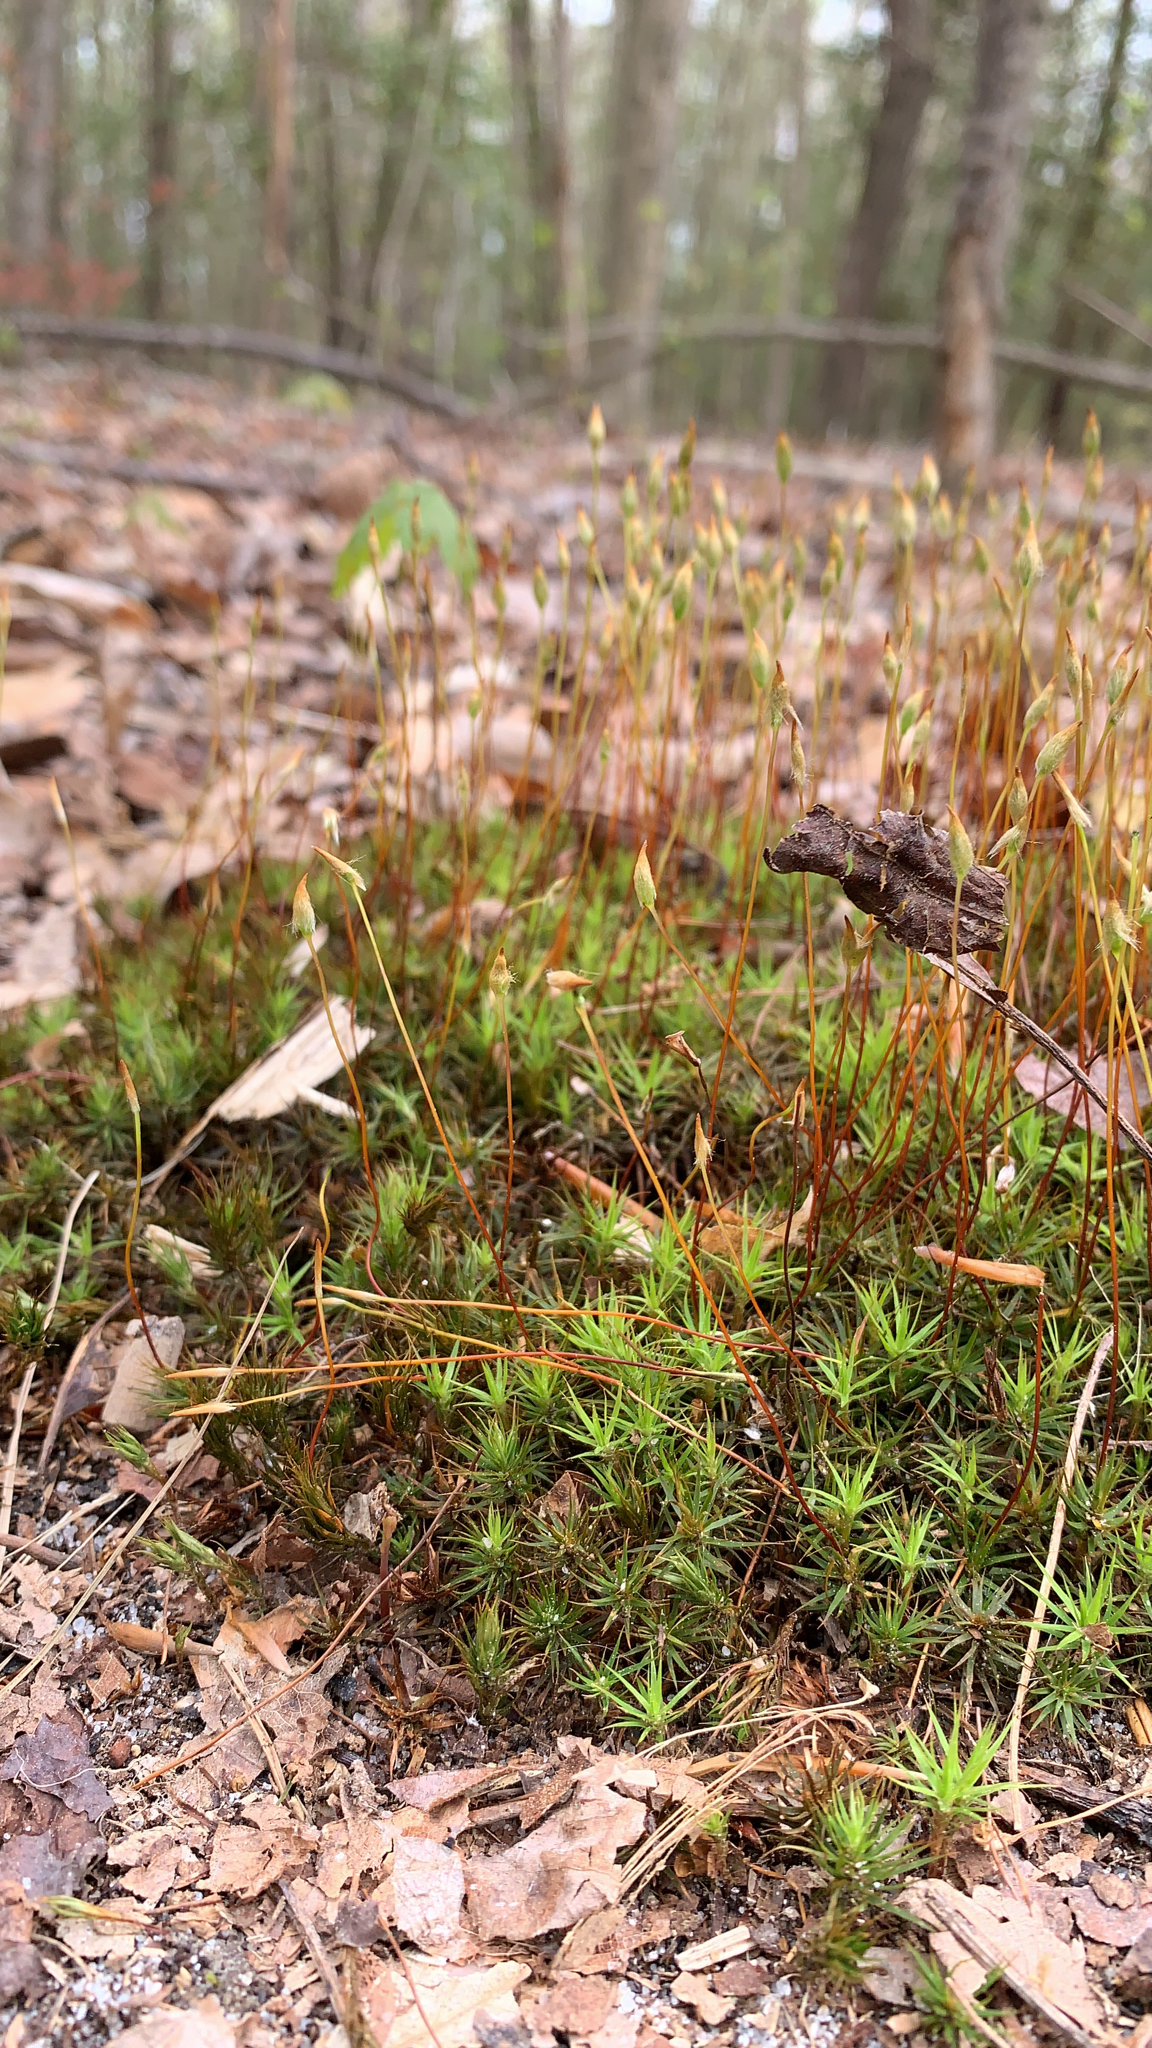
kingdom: Plantae
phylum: Bryophyta
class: Polytrichopsida
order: Polytrichales
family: Polytrichaceae
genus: Polytrichum
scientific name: Polytrichum
